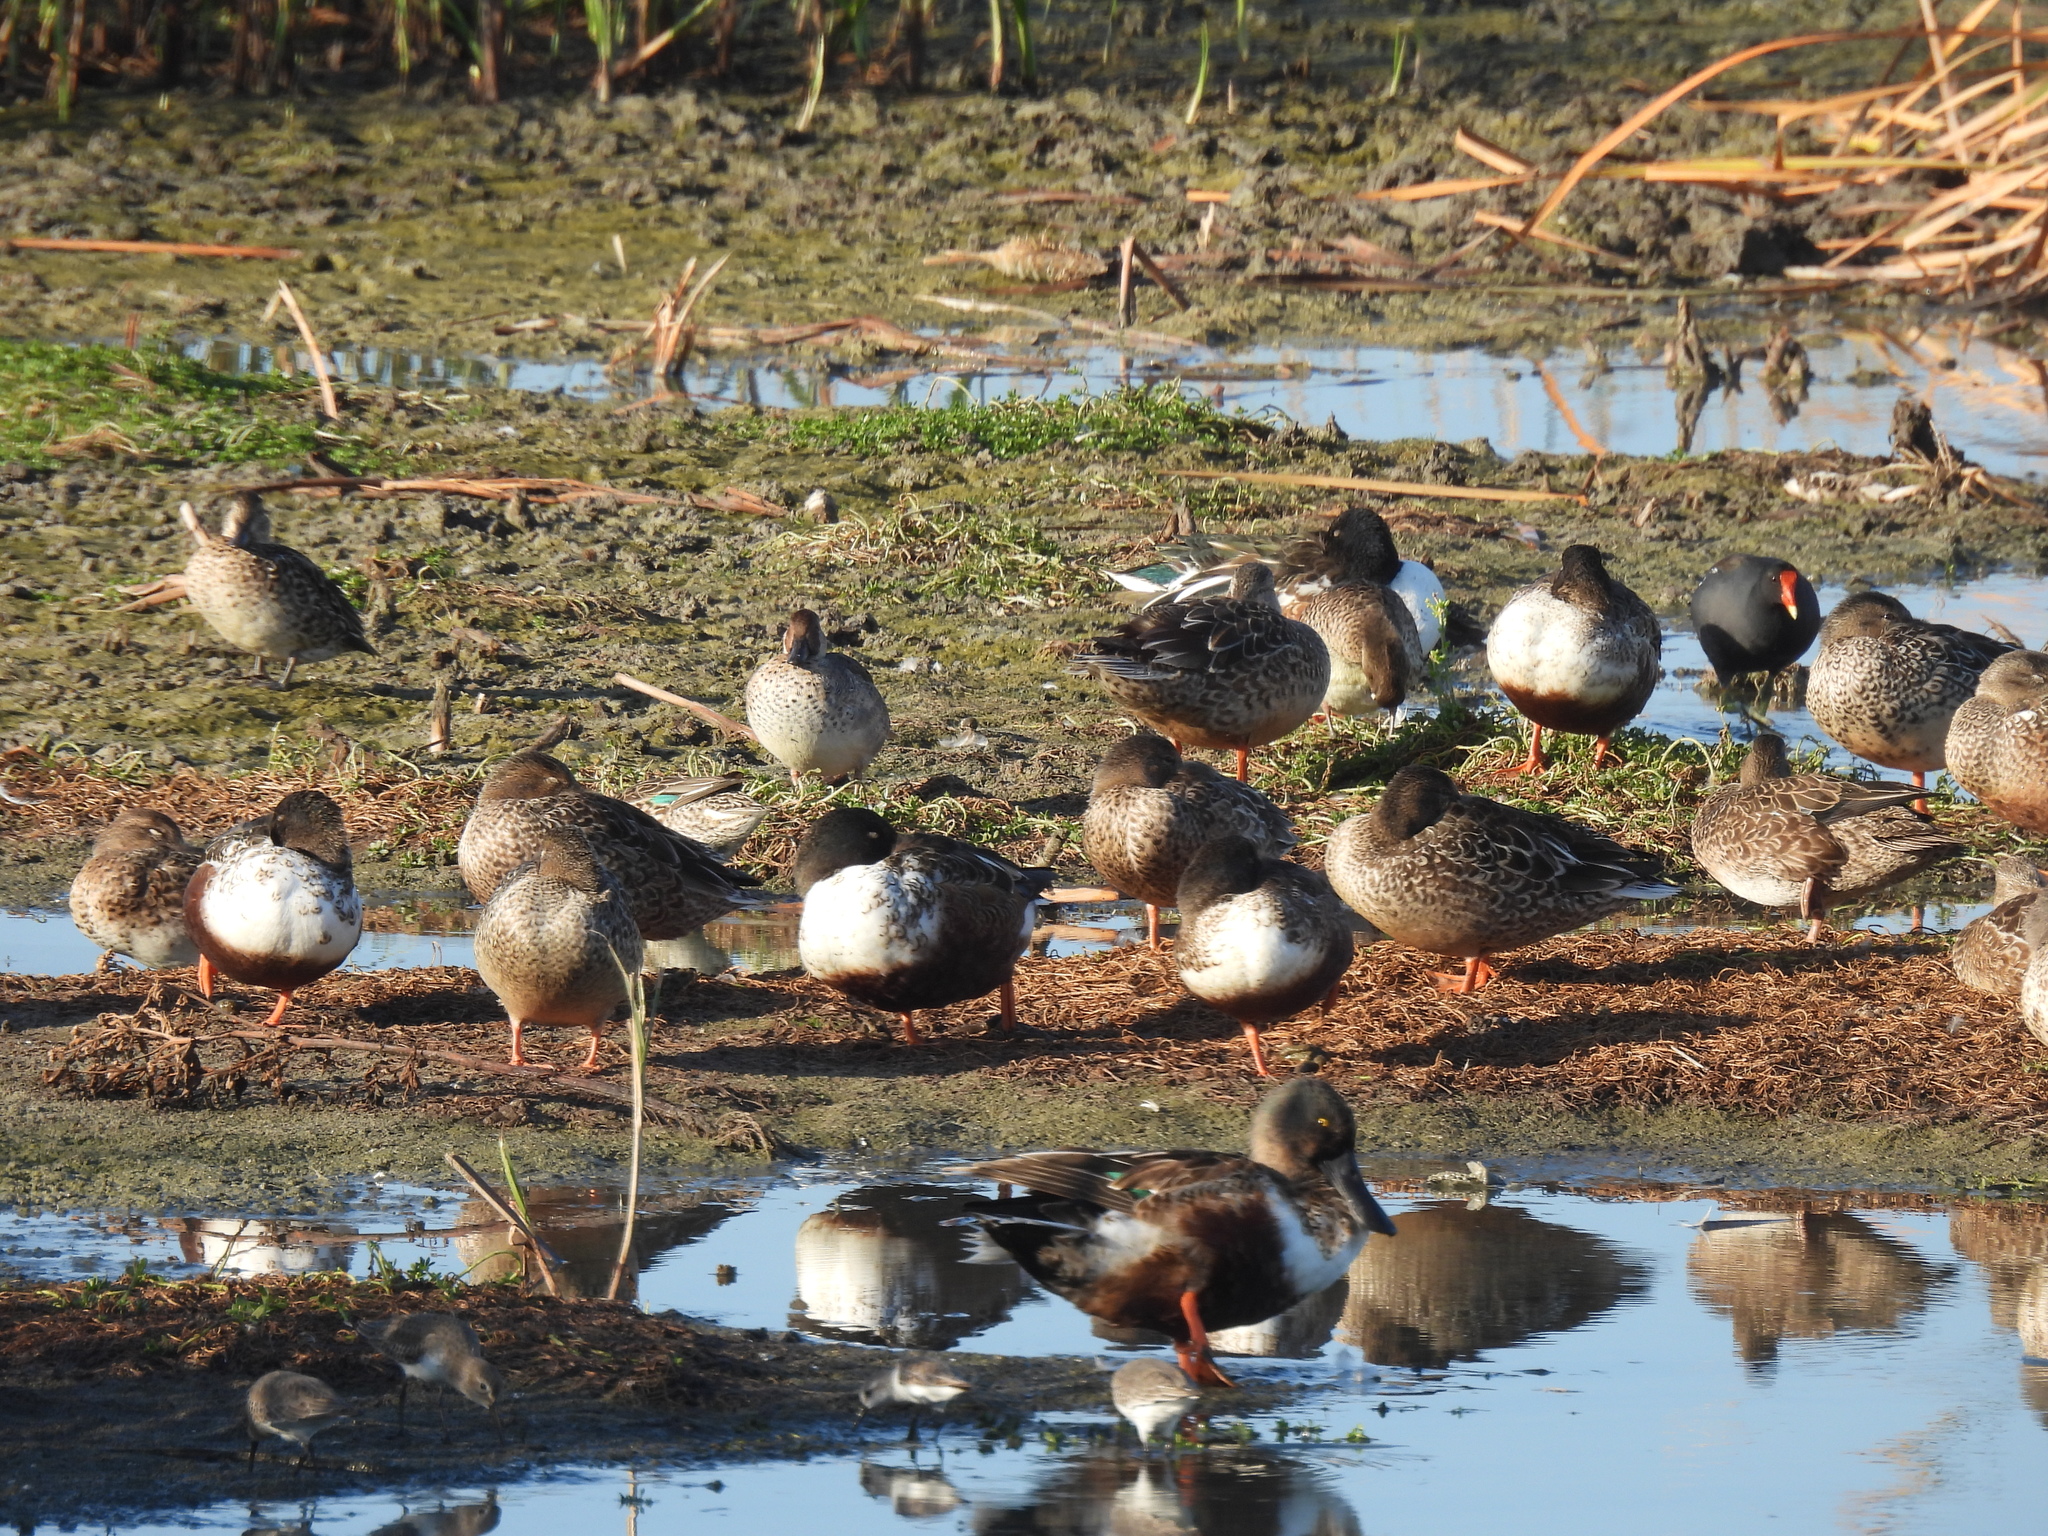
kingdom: Animalia
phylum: Chordata
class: Aves
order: Anseriformes
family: Anatidae
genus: Spatula
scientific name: Spatula clypeata
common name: Northern shoveler
